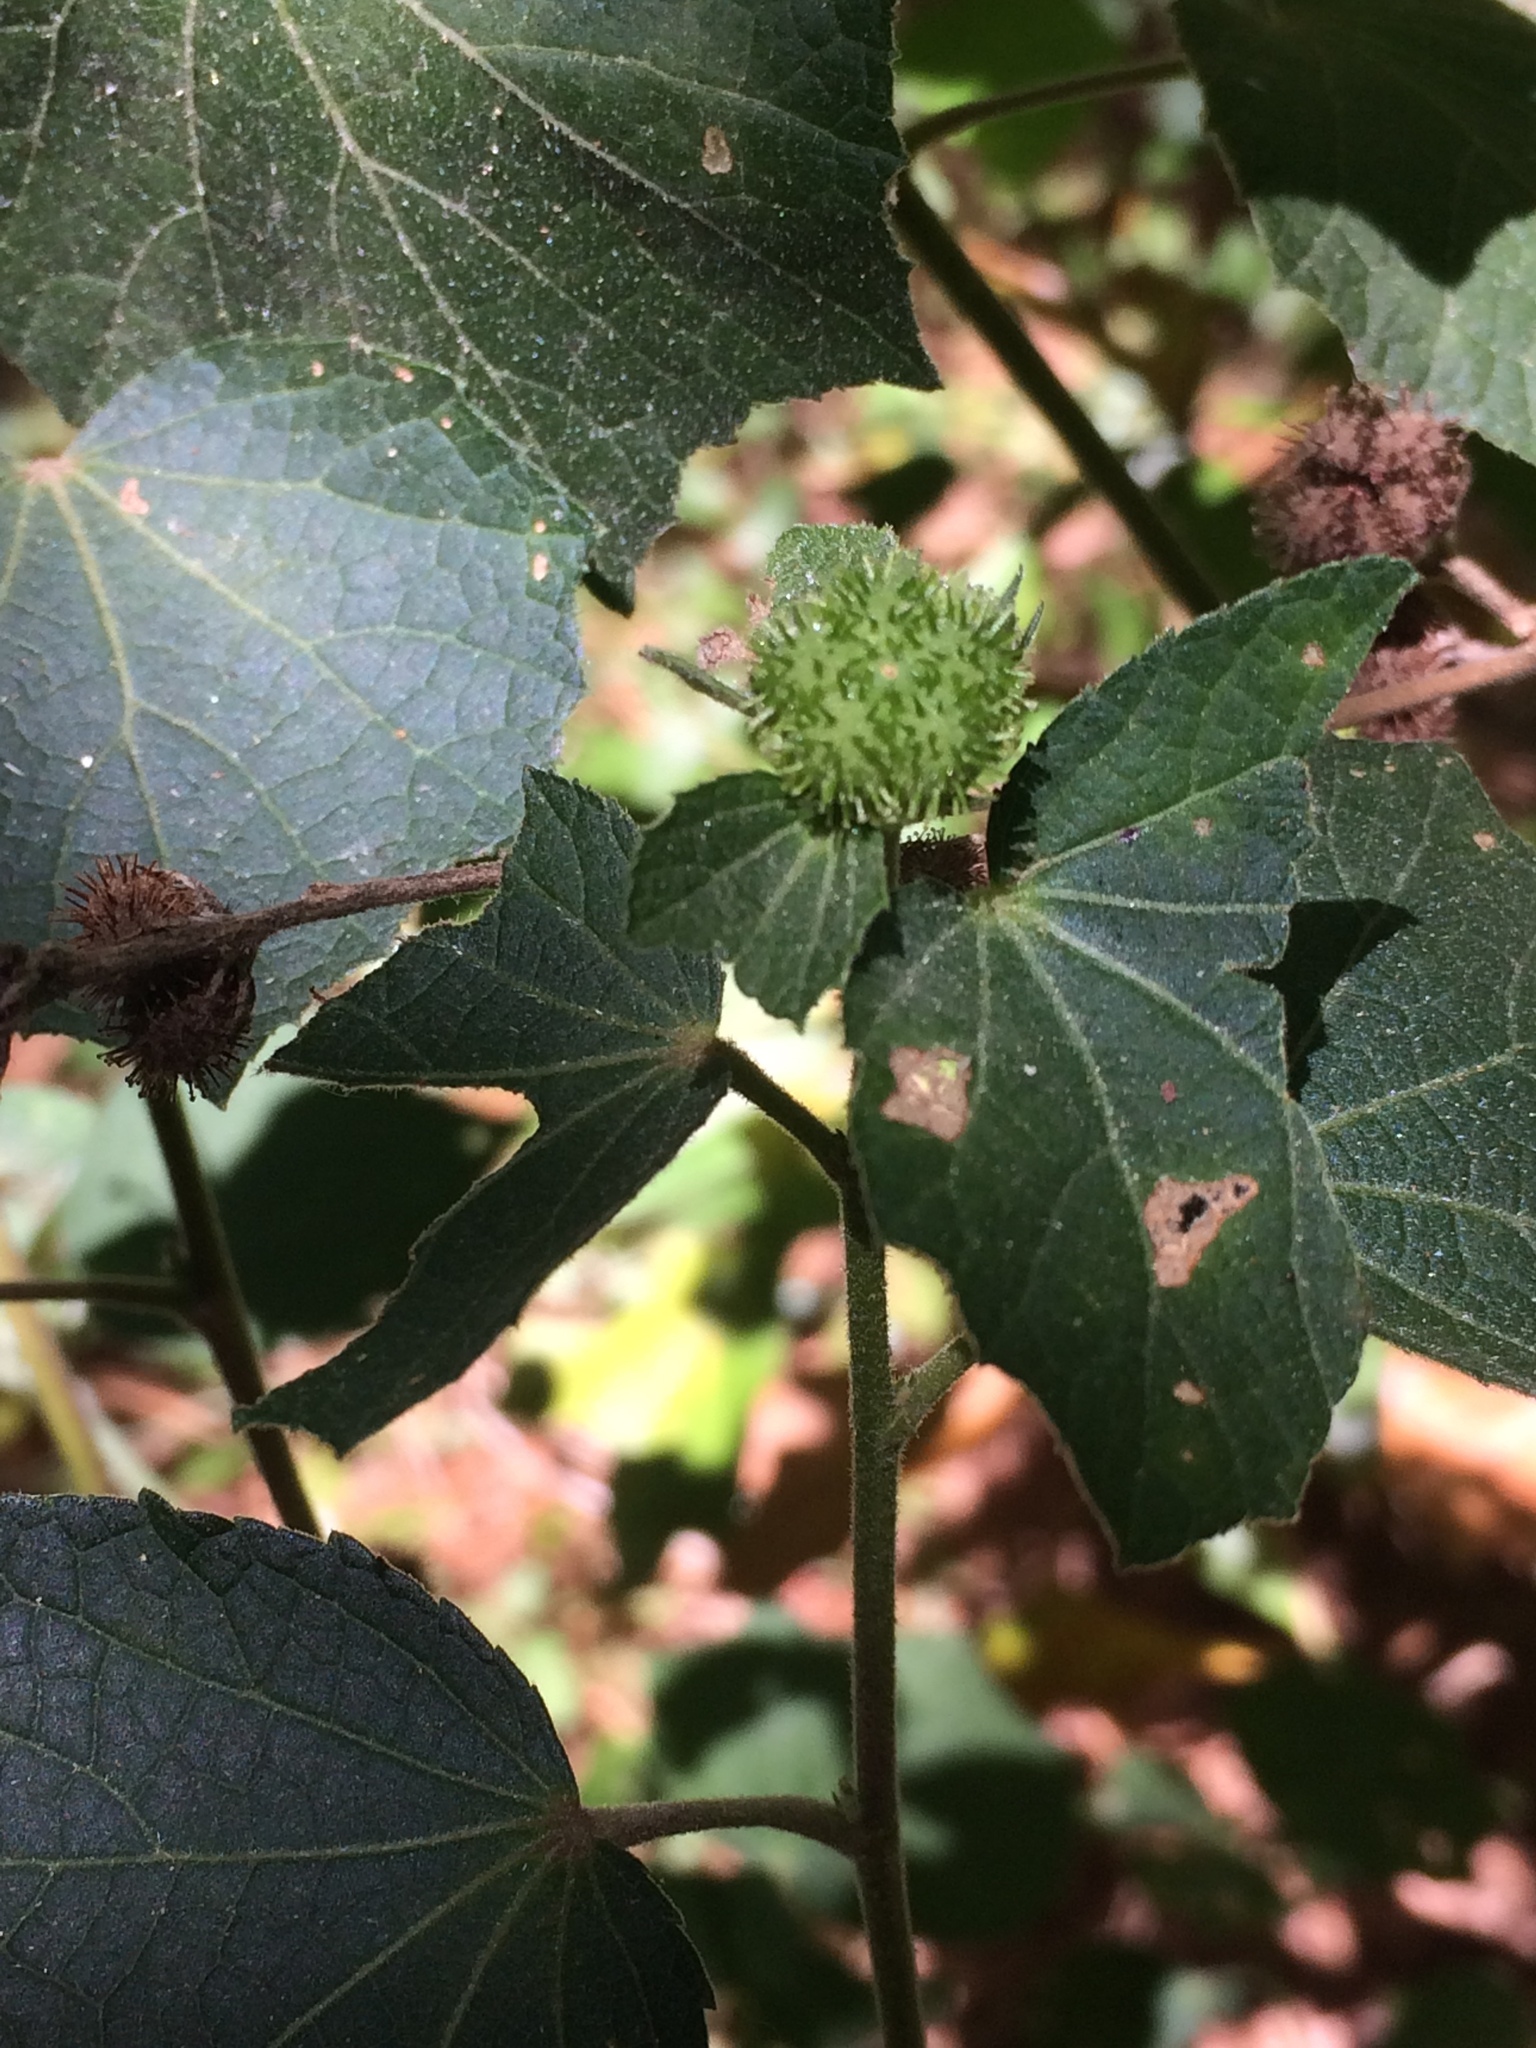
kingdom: Plantae
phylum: Tracheophyta
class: Magnoliopsida
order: Malvales
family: Malvaceae
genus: Urena
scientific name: Urena lobata
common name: Caesarweed
